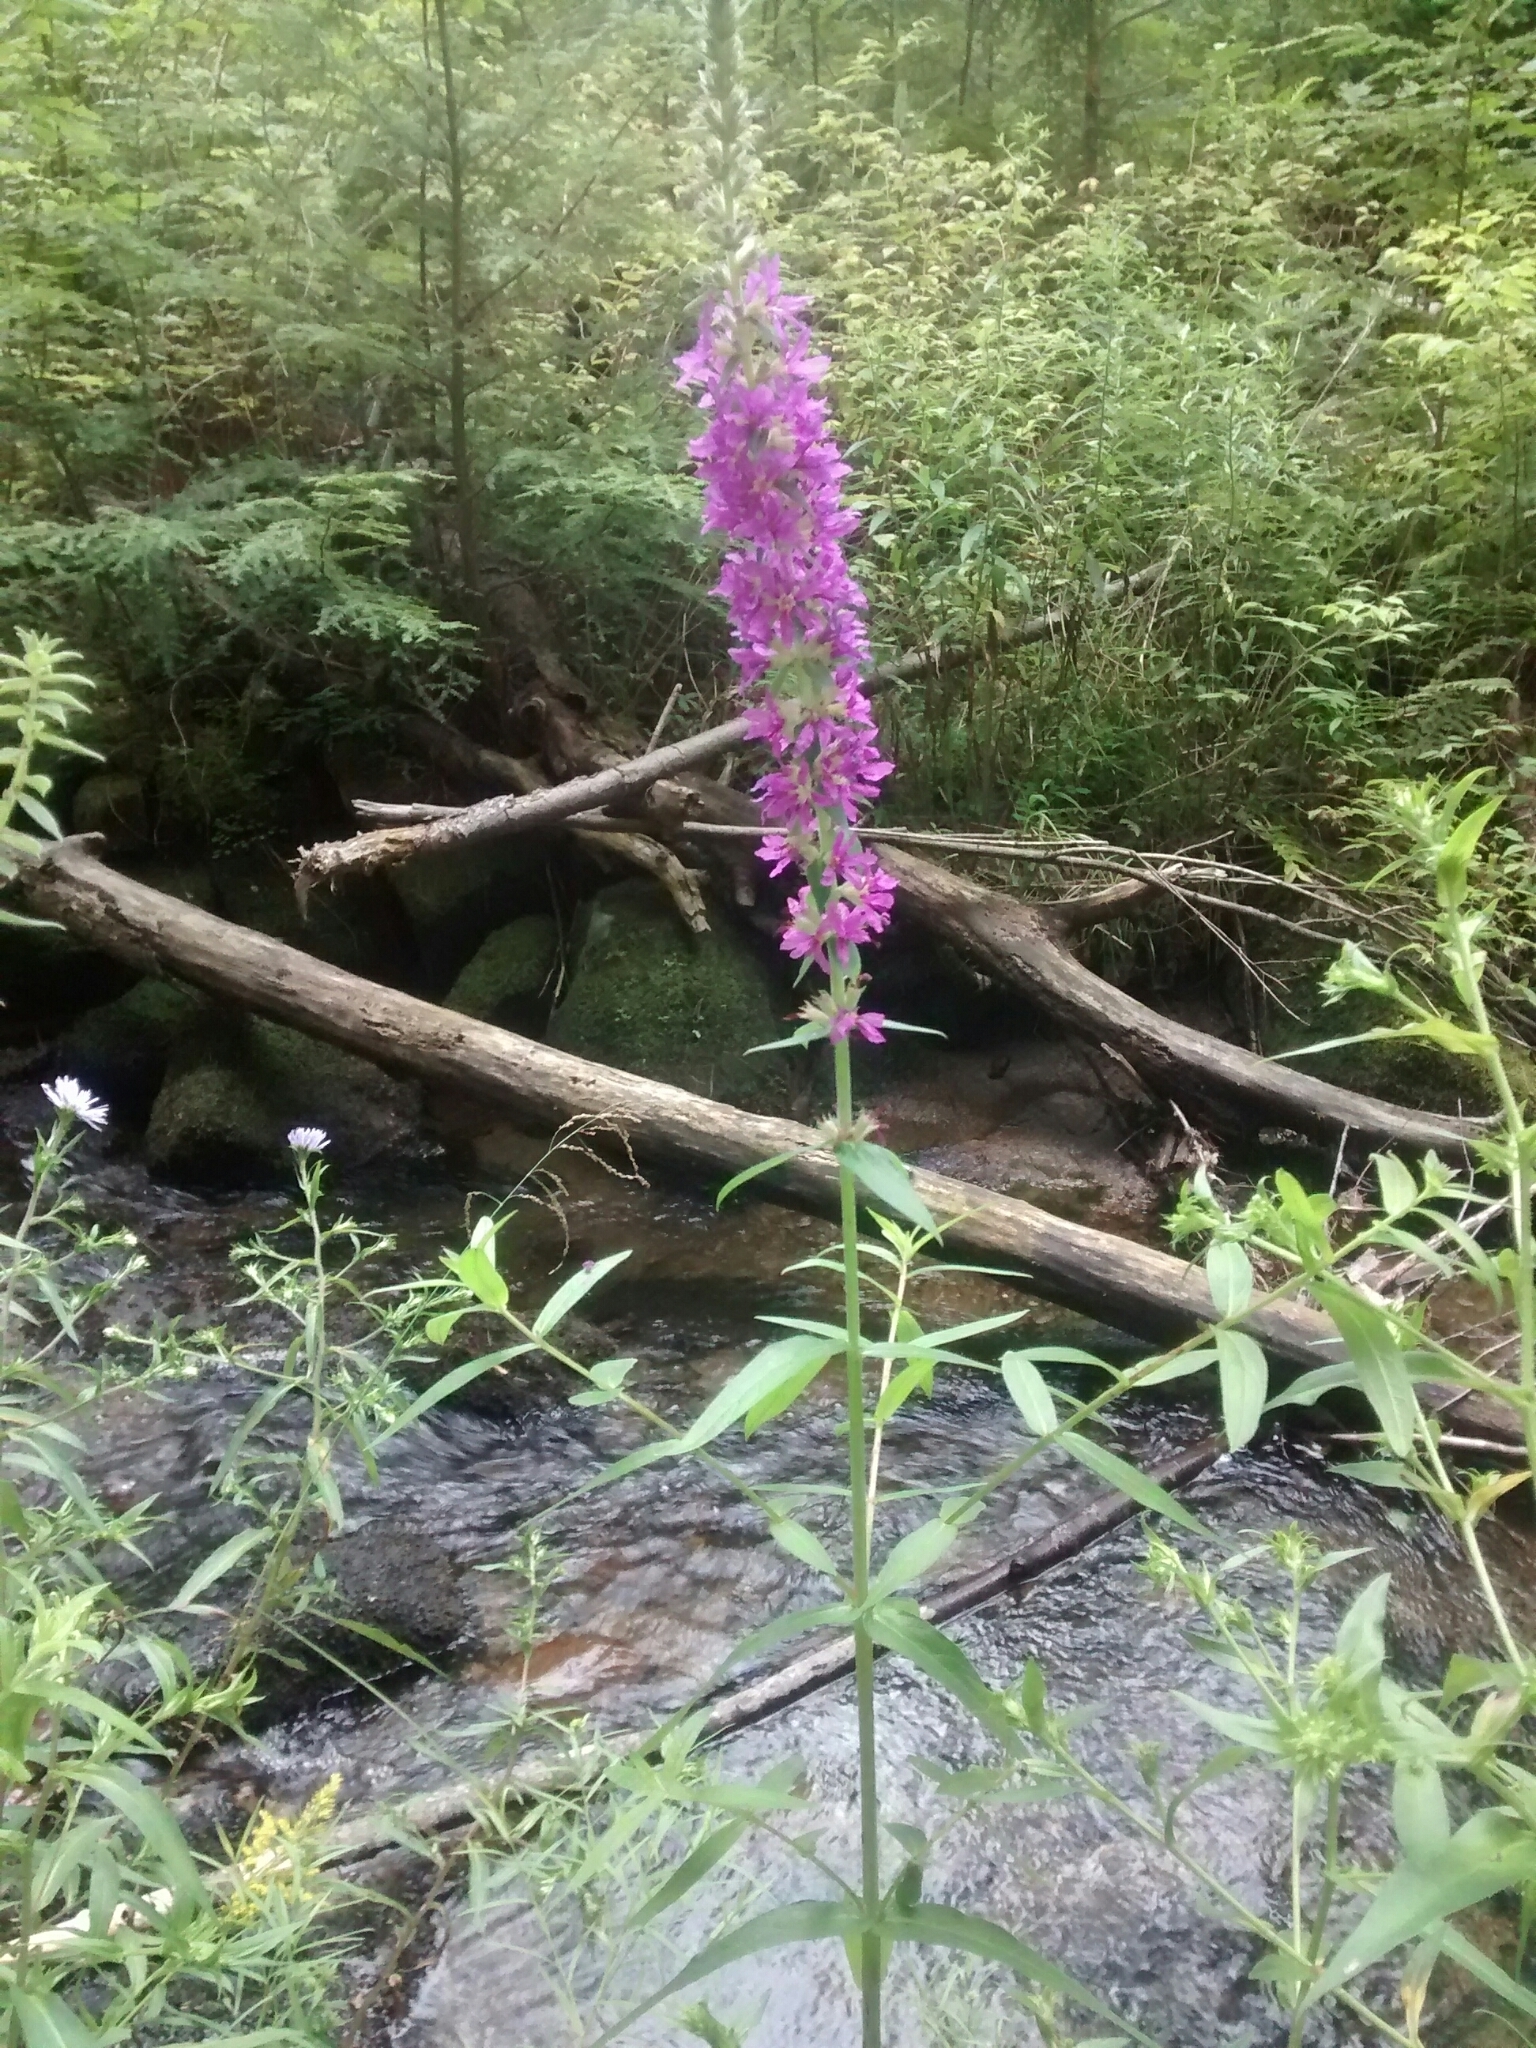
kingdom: Plantae
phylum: Tracheophyta
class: Magnoliopsida
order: Myrtales
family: Lythraceae
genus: Lythrum
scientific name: Lythrum salicaria
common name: Purple loosestrife
